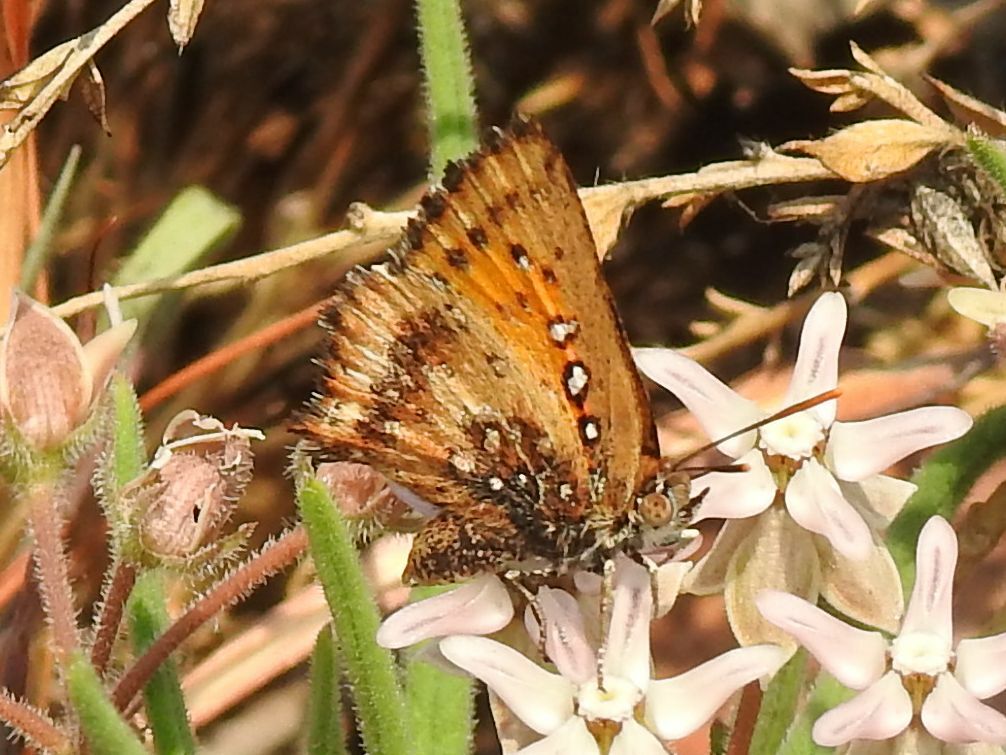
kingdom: Animalia
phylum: Arthropoda
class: Insecta
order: Lepidoptera
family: Lycaenidae
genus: Aloeides
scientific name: Aloeides molomo
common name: Mottled russet
